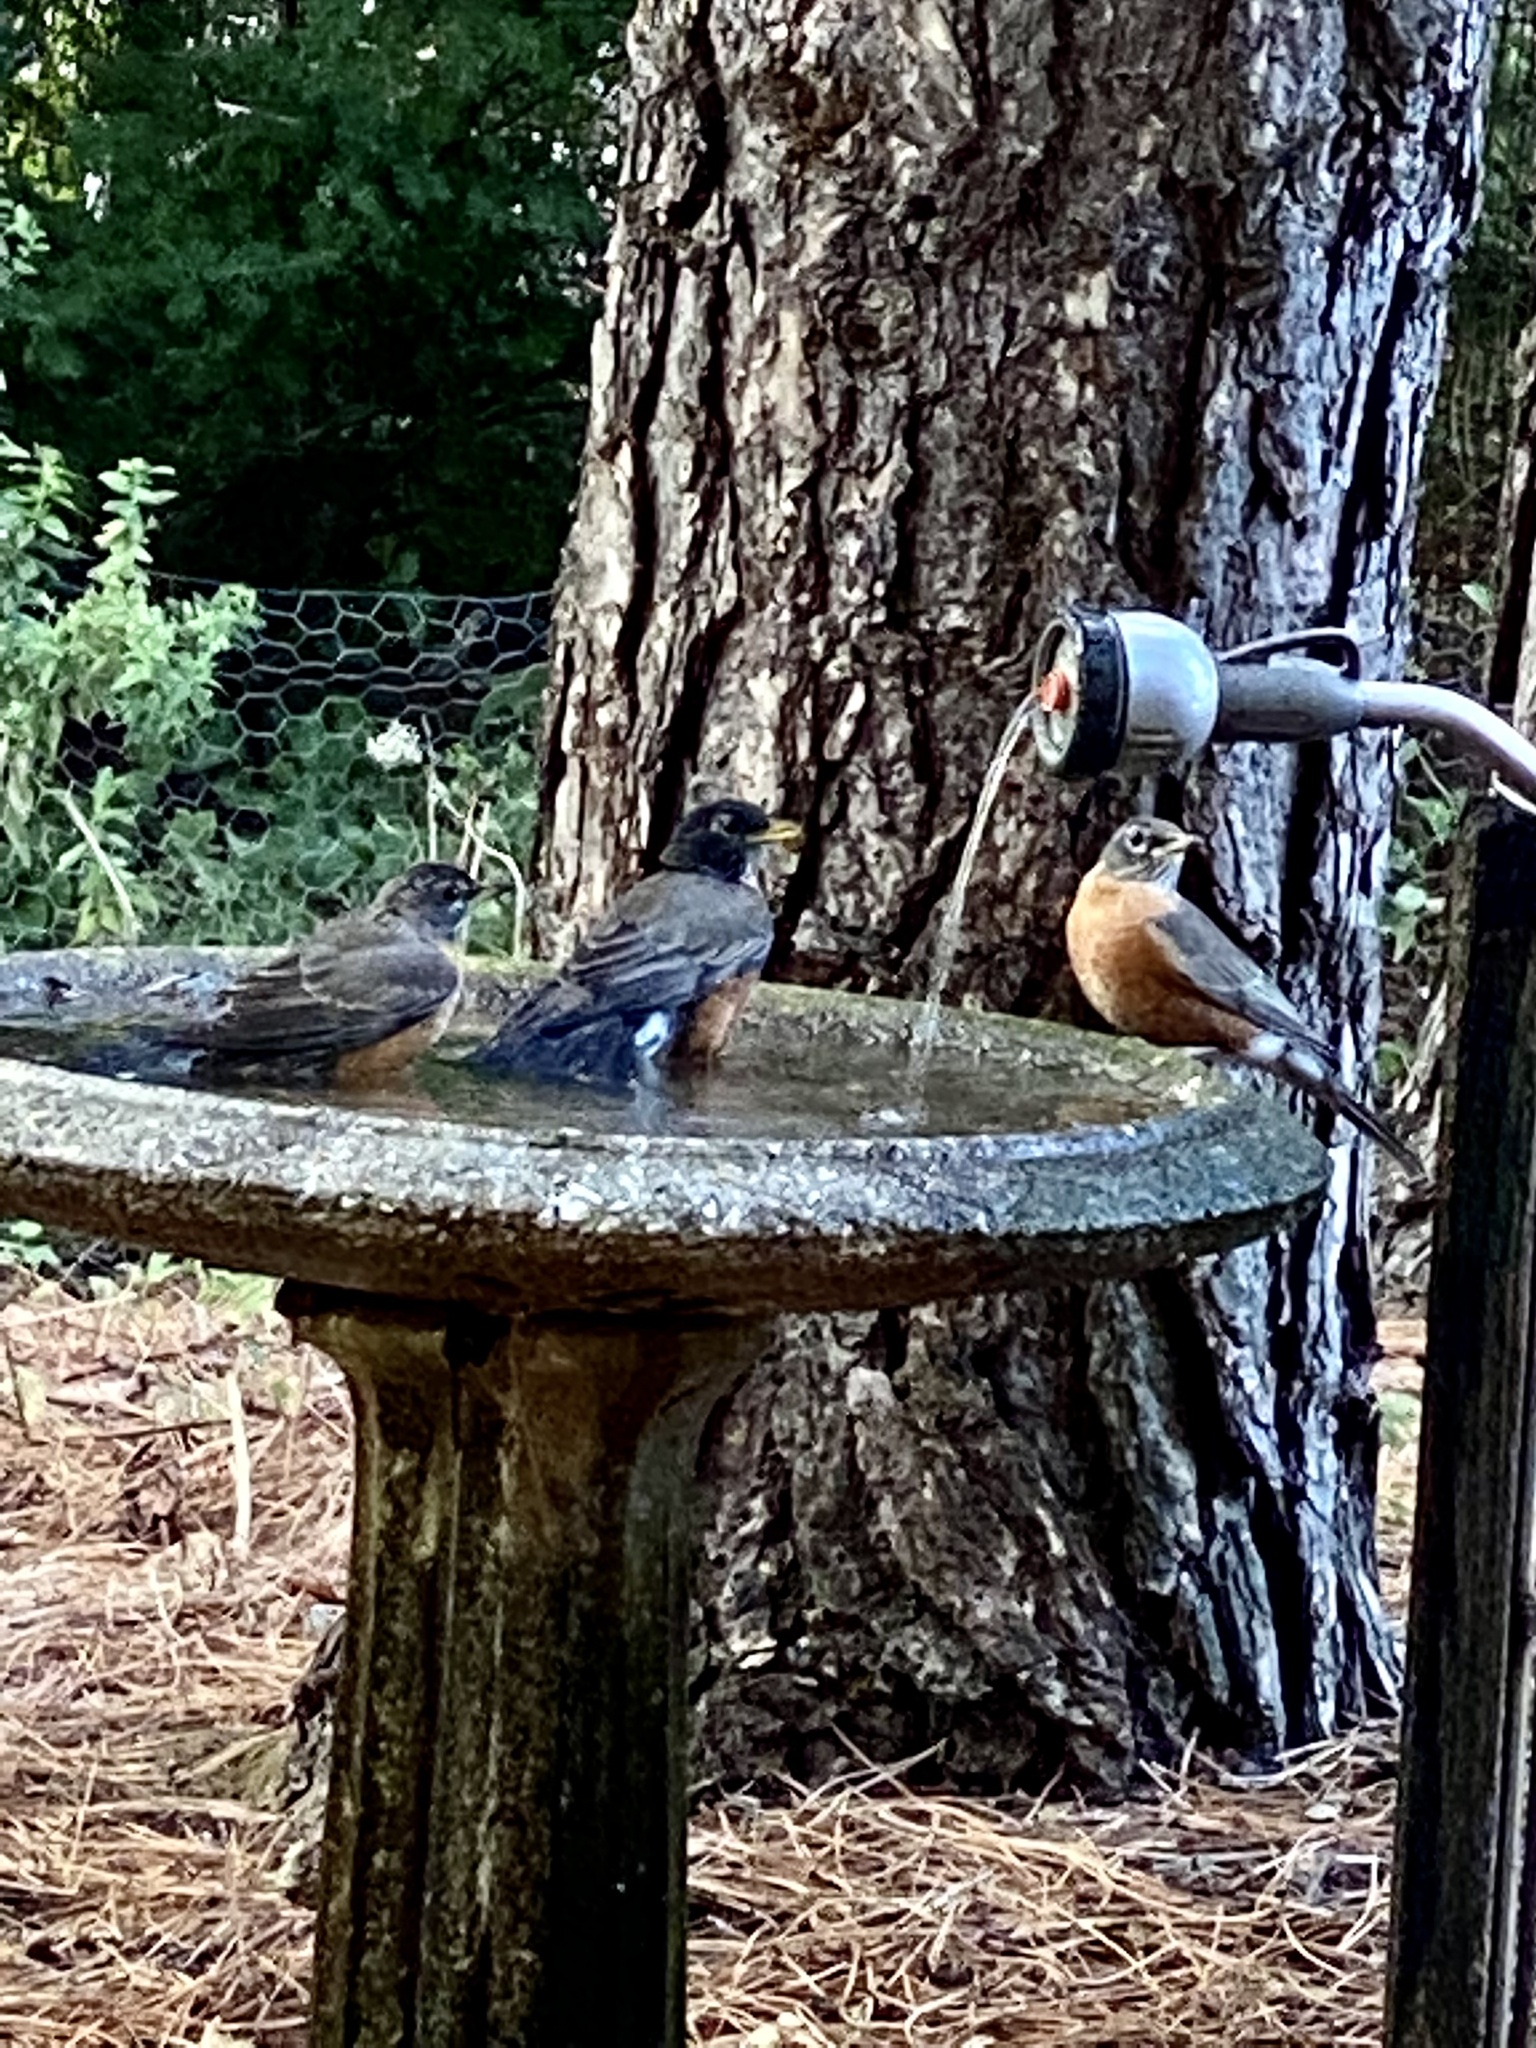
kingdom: Animalia
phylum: Chordata
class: Aves
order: Passeriformes
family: Turdidae
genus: Turdus
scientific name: Turdus migratorius
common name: American robin
